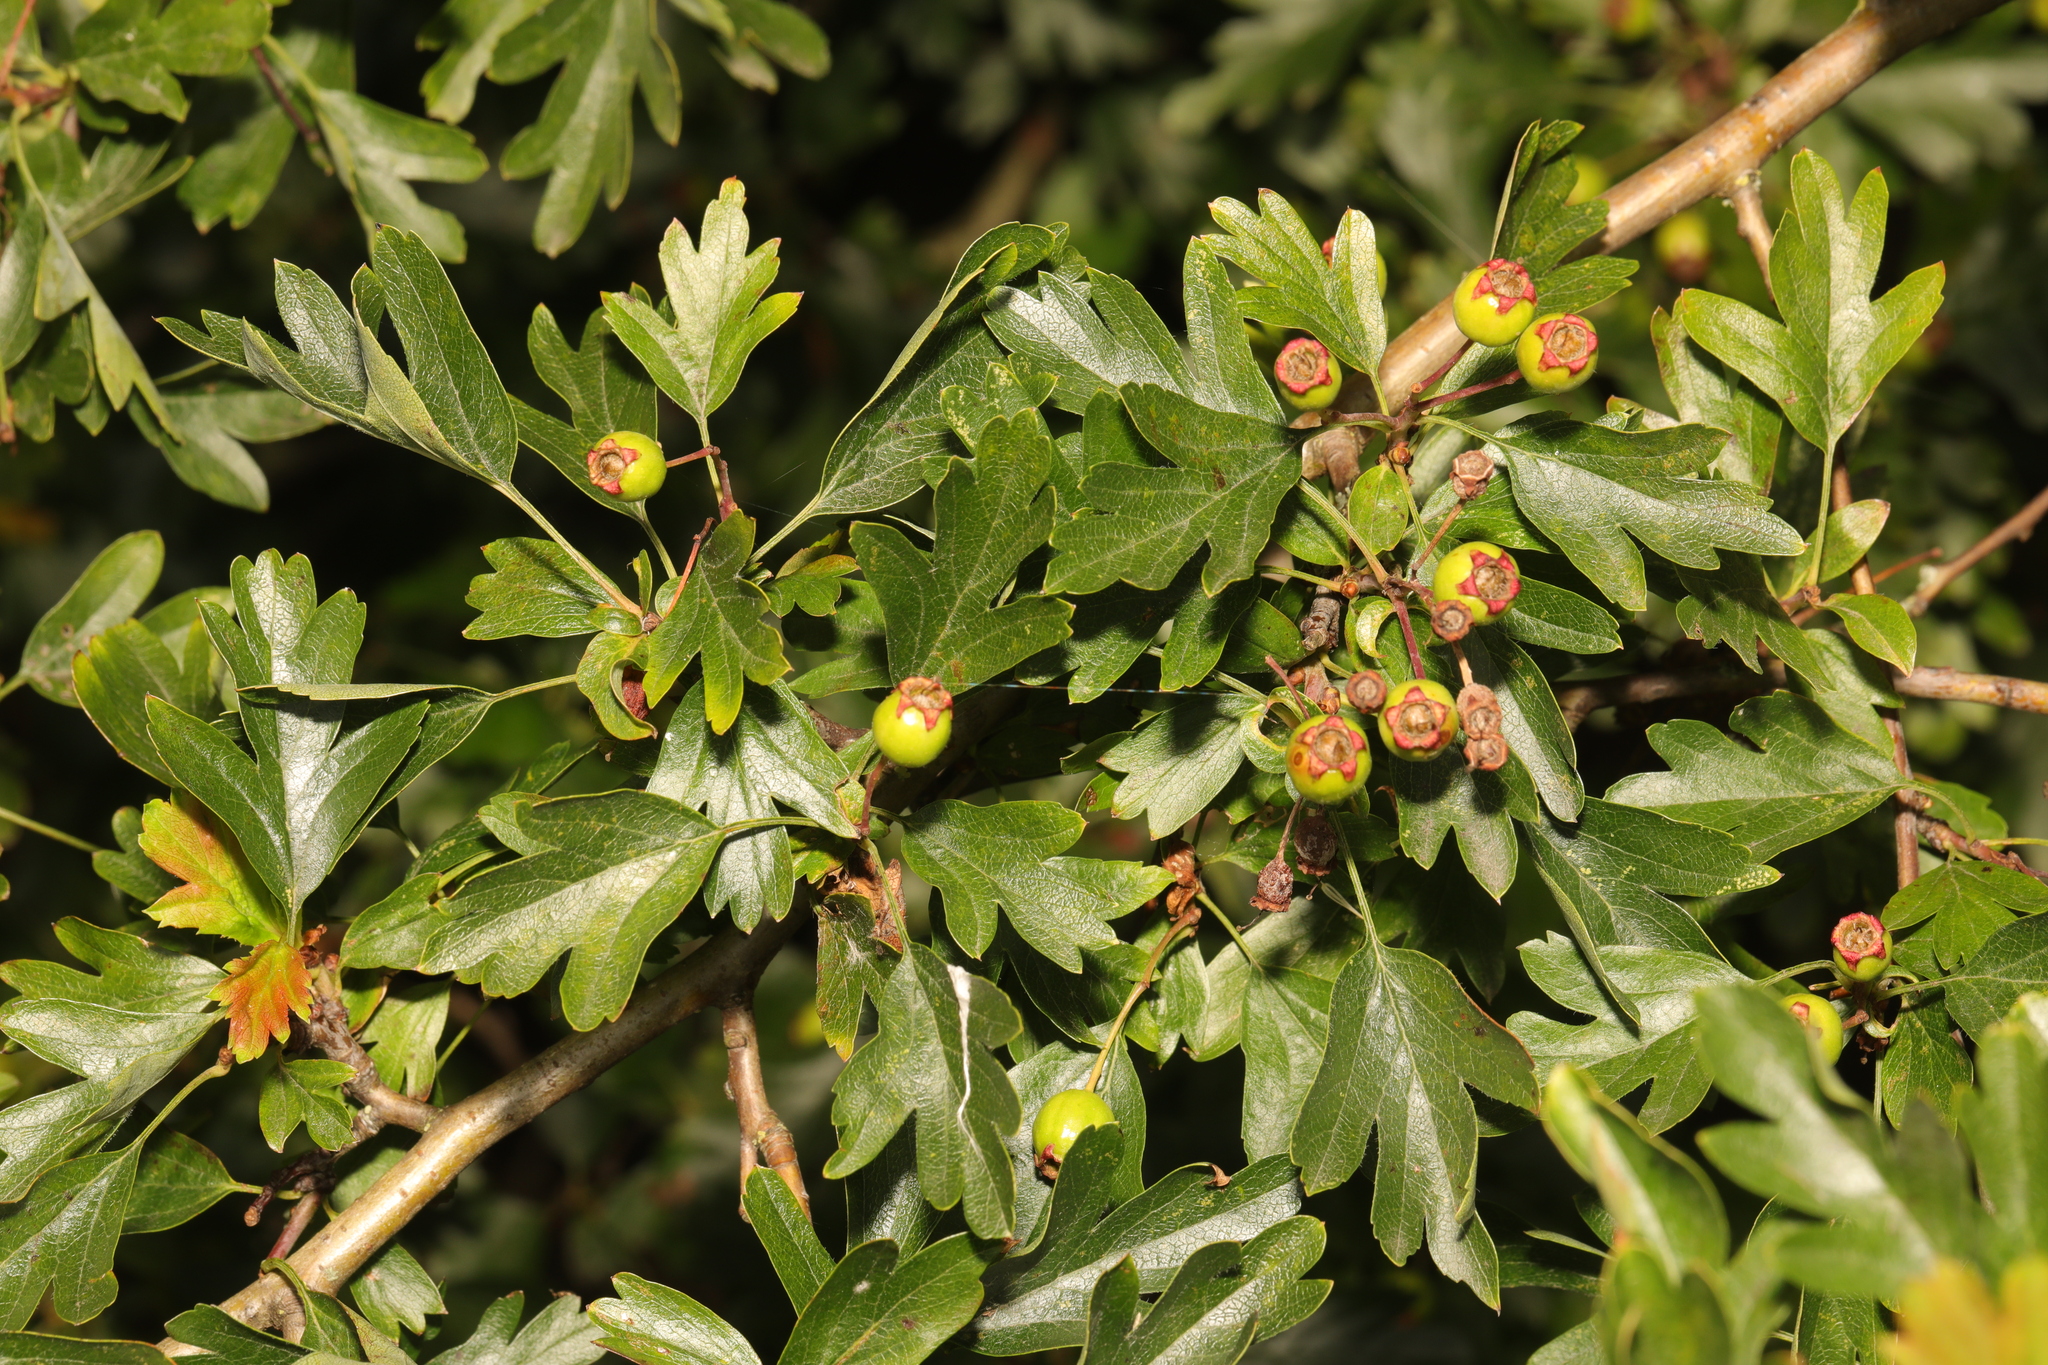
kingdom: Plantae
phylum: Tracheophyta
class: Magnoliopsida
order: Rosales
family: Rosaceae
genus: Crataegus
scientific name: Crataegus monogyna
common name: Hawthorn
